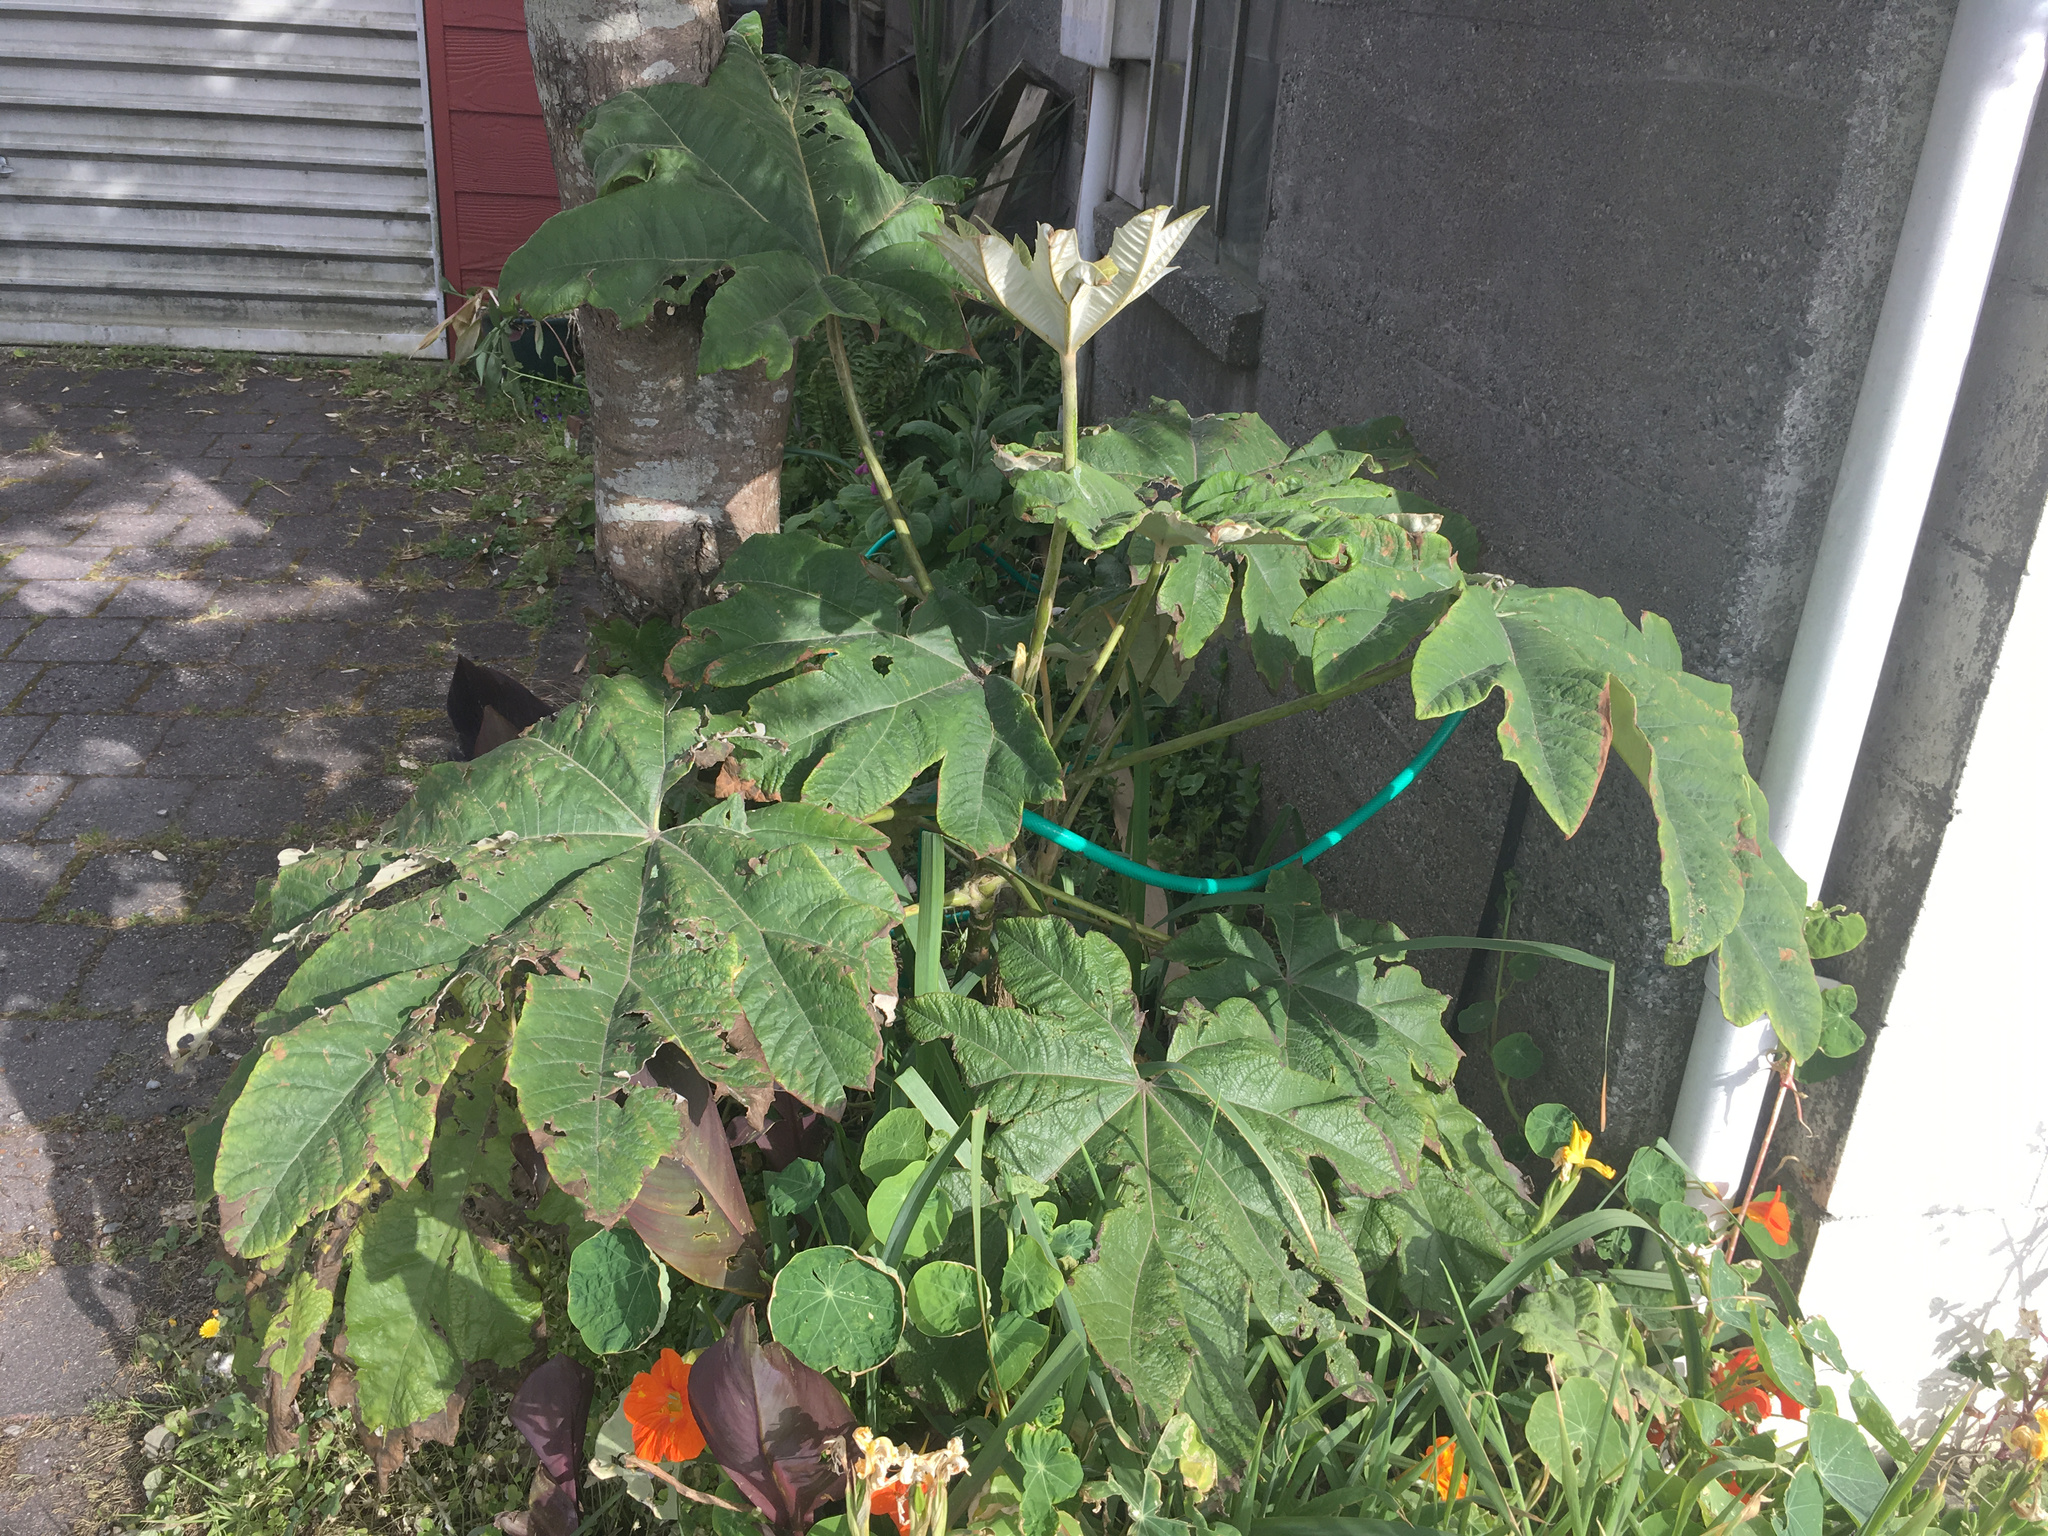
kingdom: Plantae
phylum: Tracheophyta
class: Magnoliopsida
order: Apiales
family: Araliaceae
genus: Tetrapanax
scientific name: Tetrapanax papyrifer
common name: Rice-paper plant
